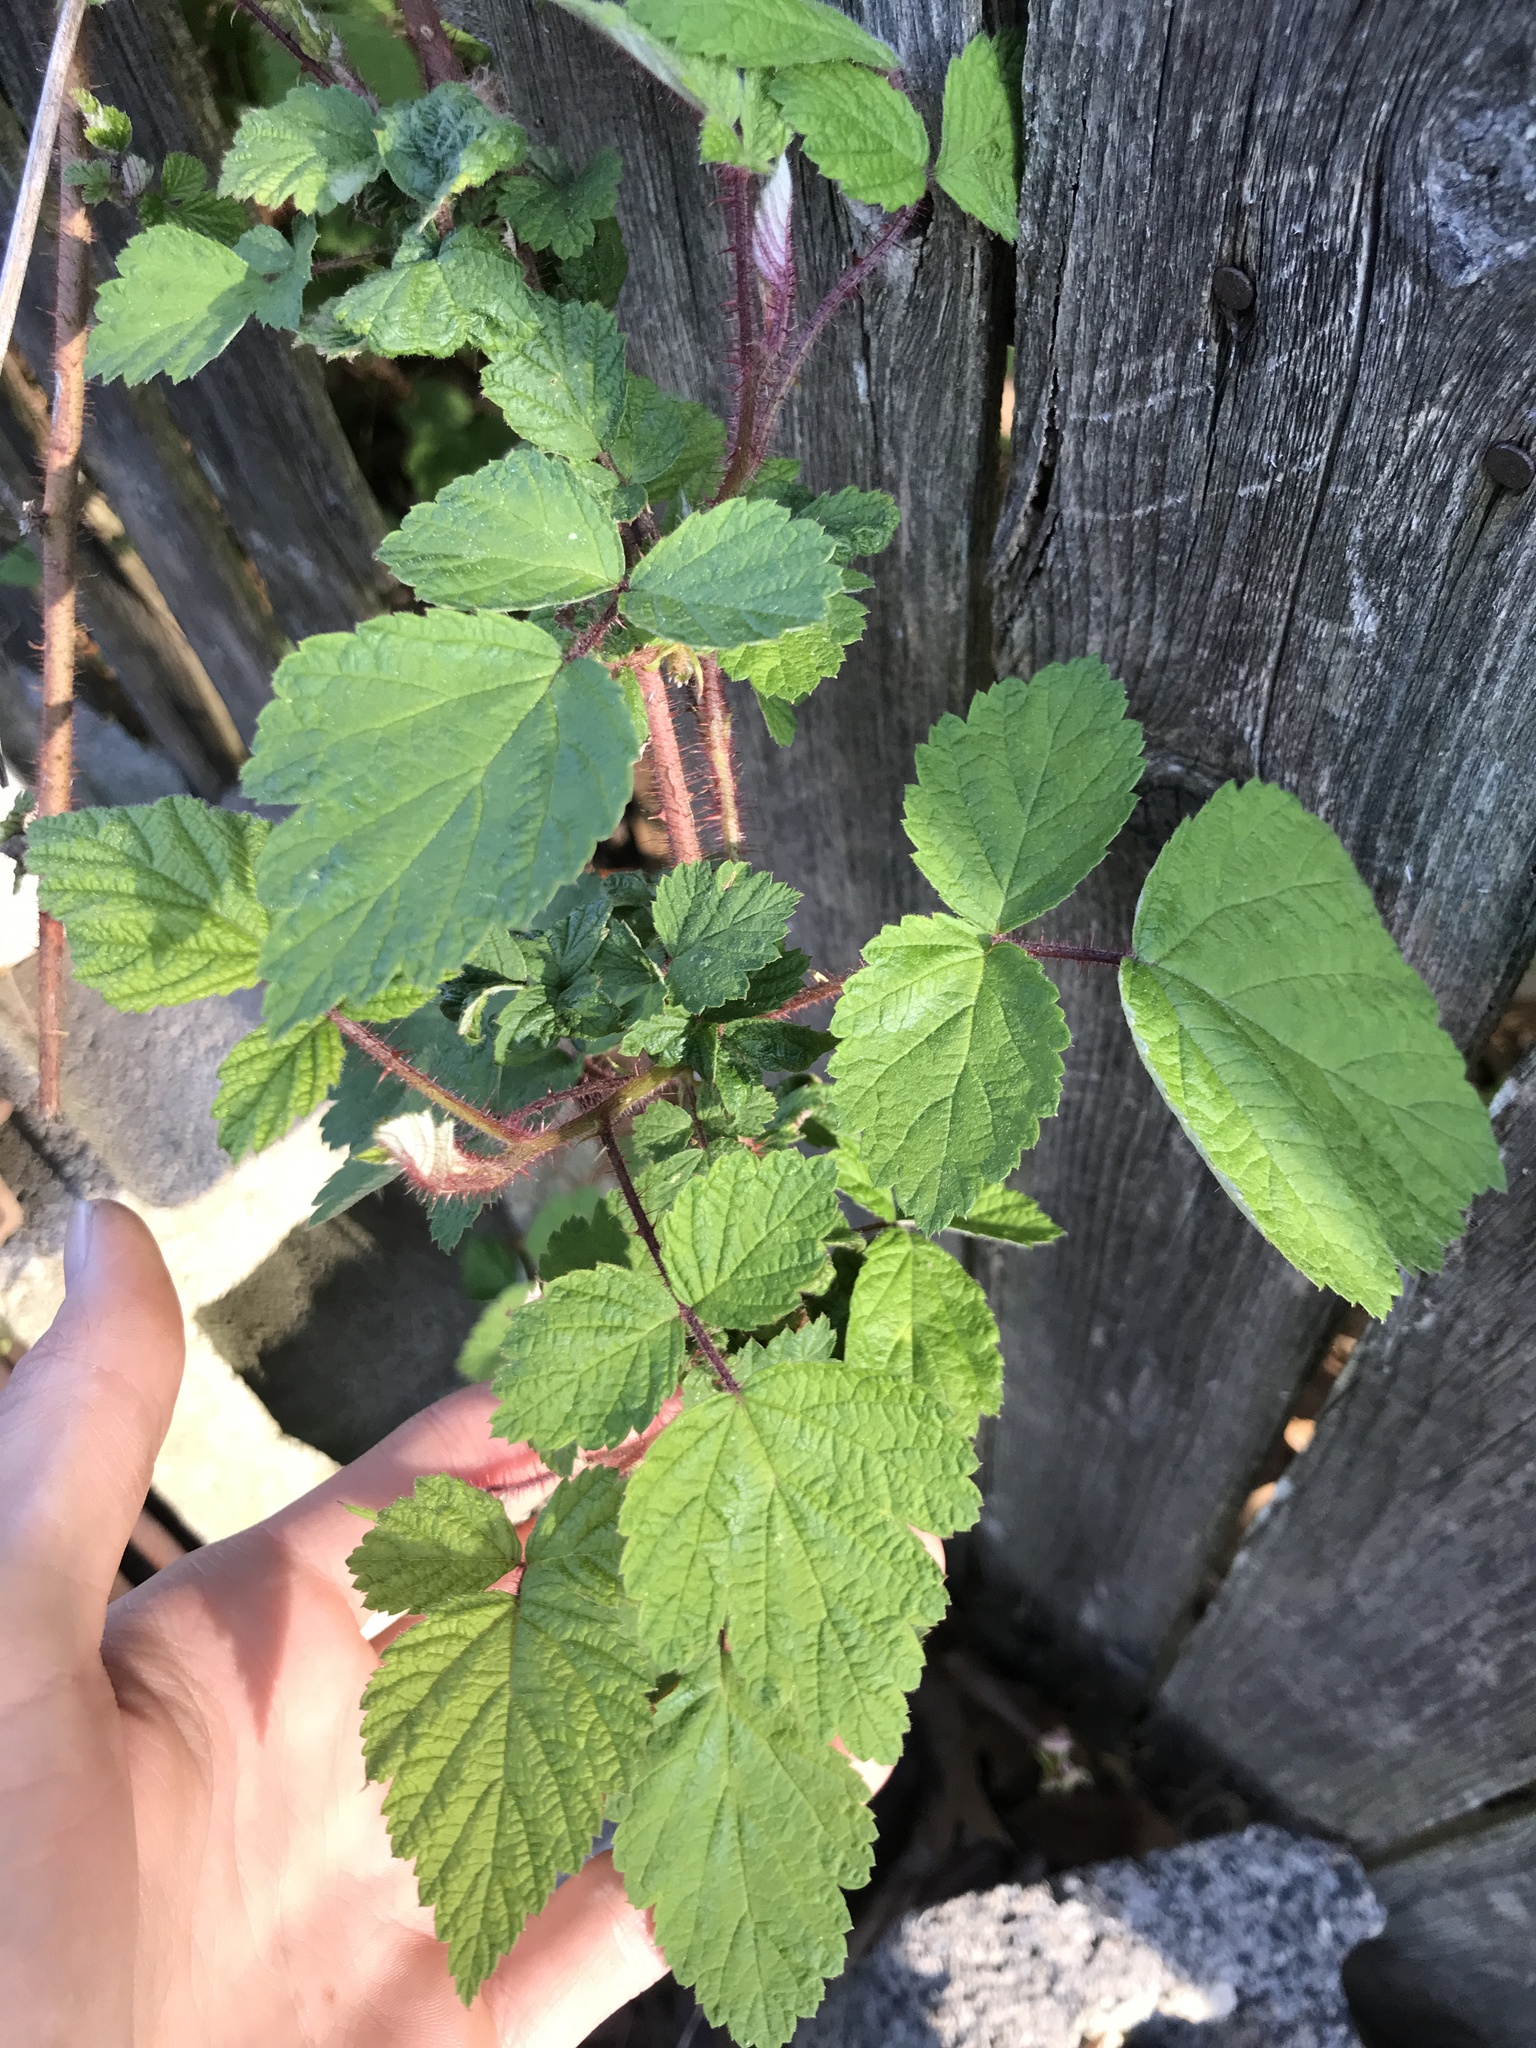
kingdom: Plantae
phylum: Tracheophyta
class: Magnoliopsida
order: Rosales
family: Rosaceae
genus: Rubus
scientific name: Rubus phoenicolasius
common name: Japanese wineberry
